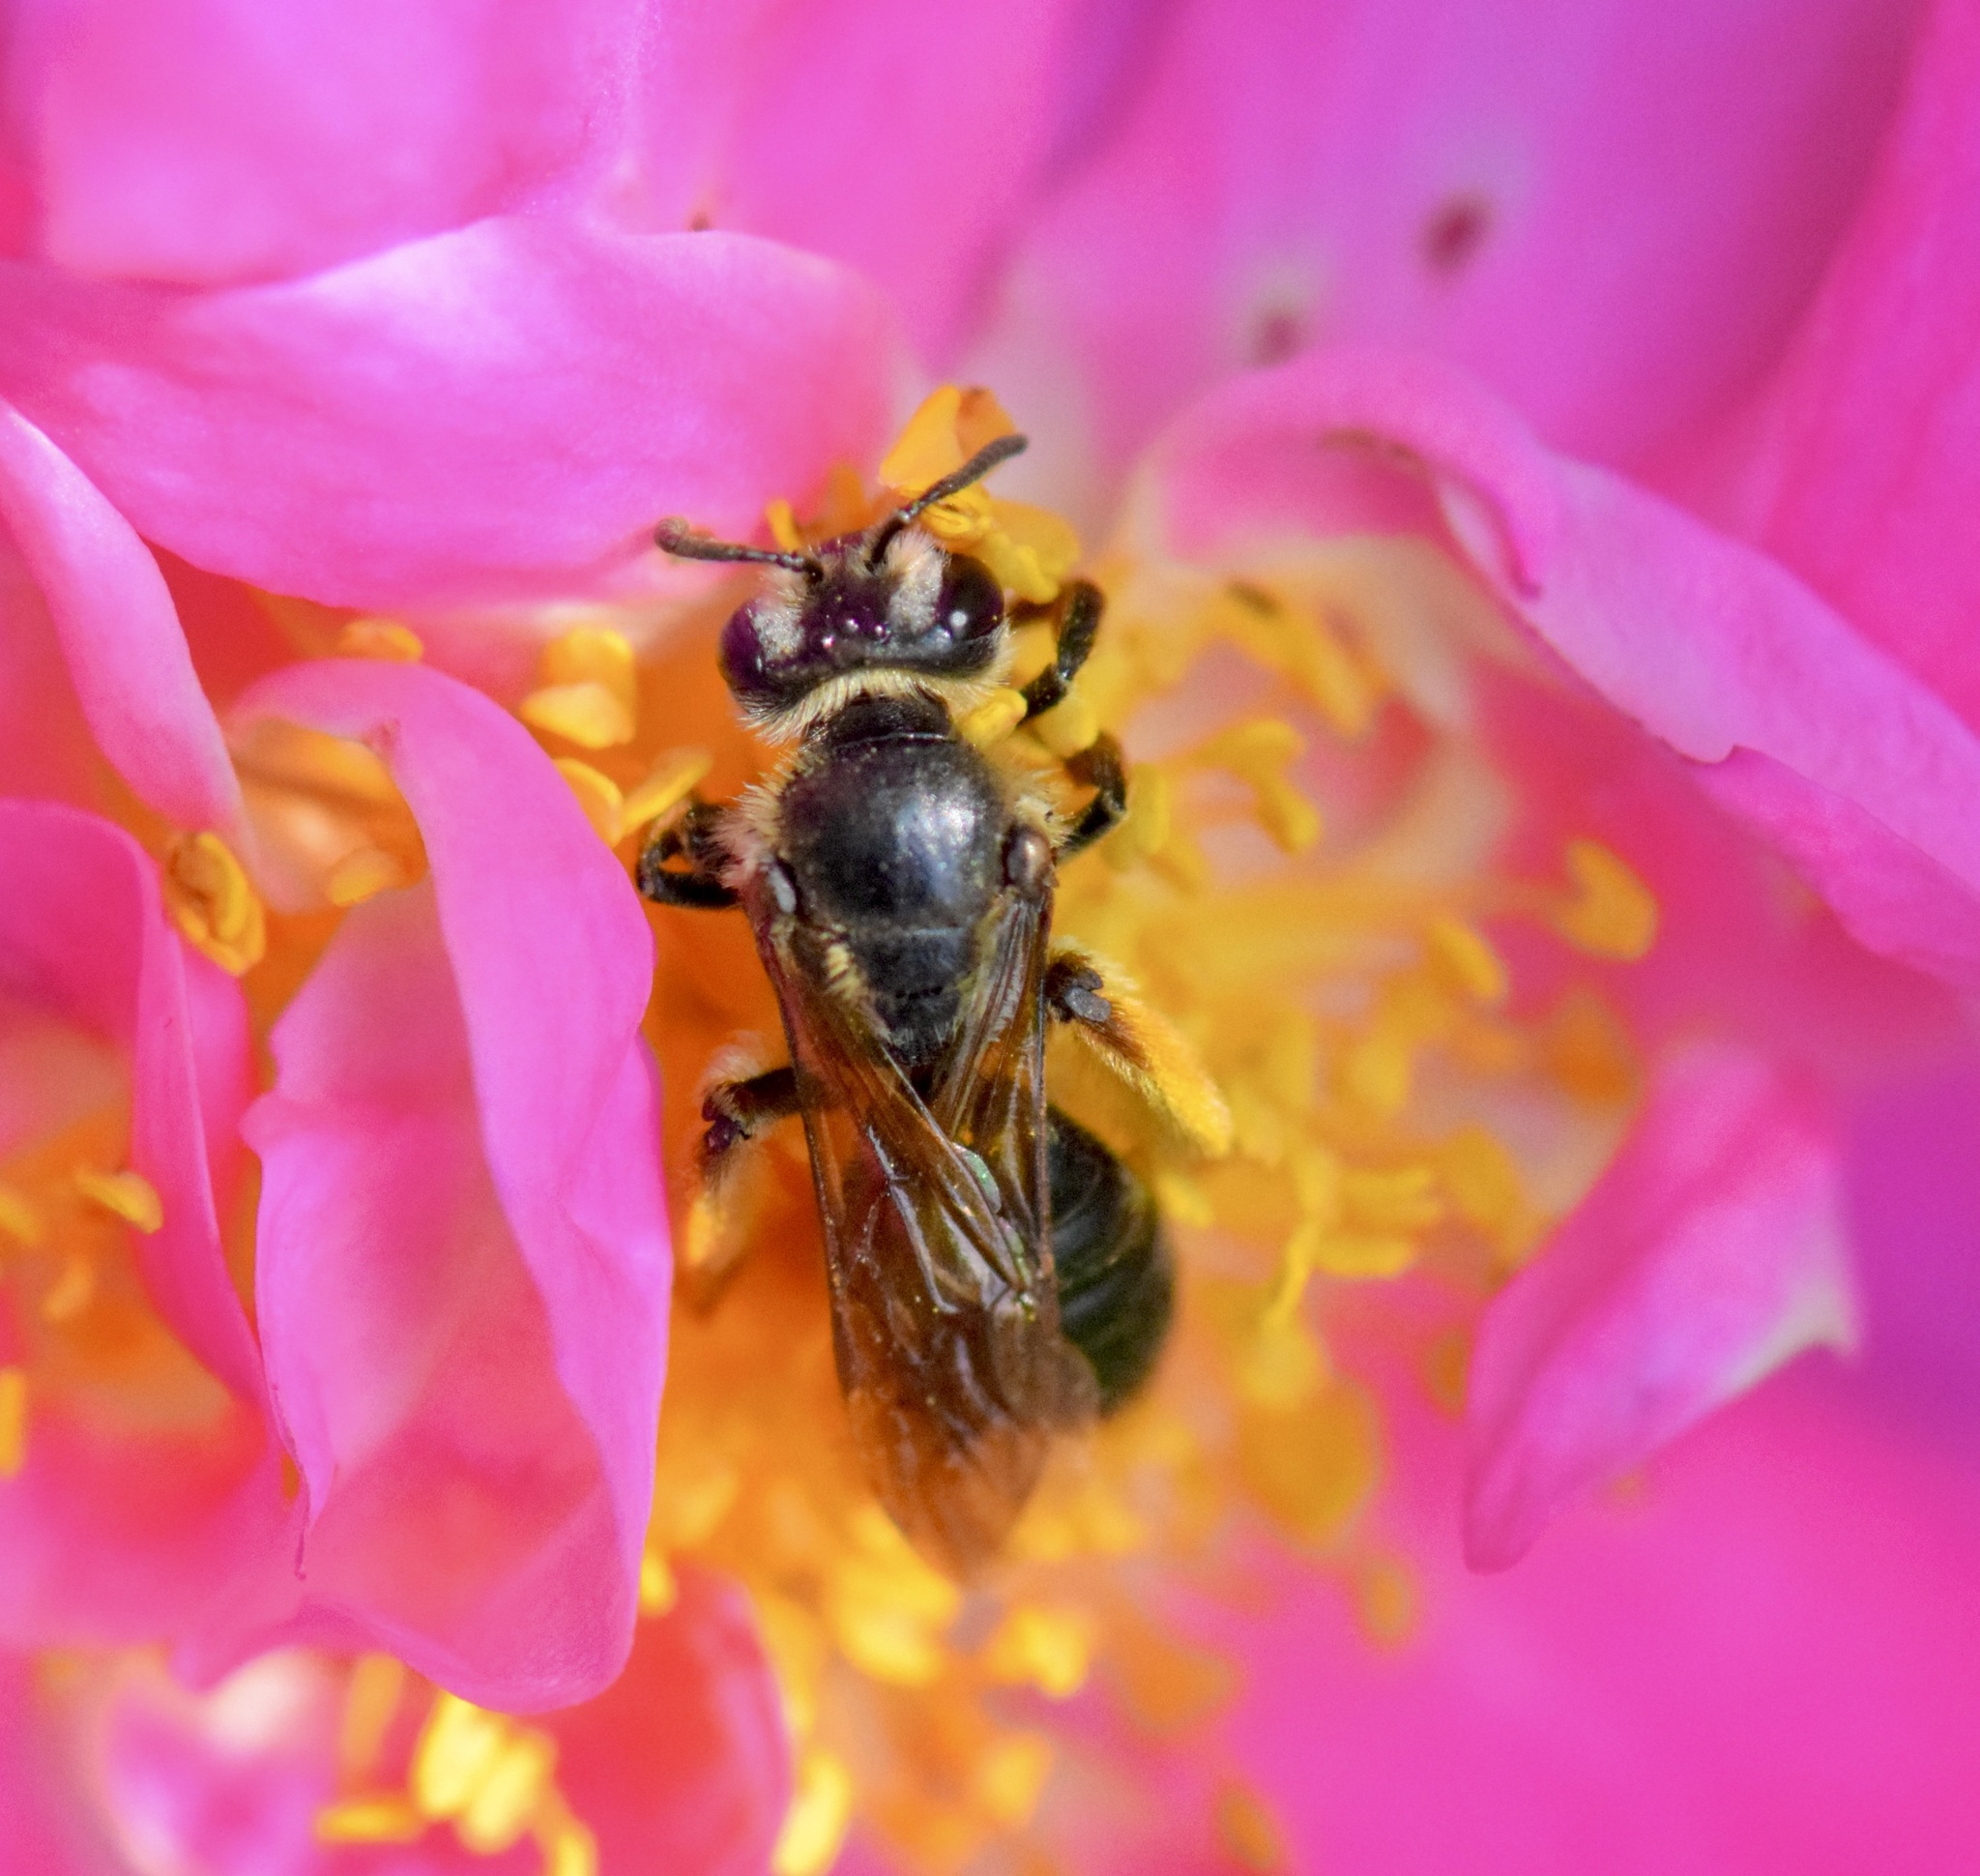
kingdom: Animalia
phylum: Arthropoda
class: Insecta
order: Hymenoptera
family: Andrenidae
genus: Andrena
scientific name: Andrena crataegi
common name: Hawthorn mining bee
